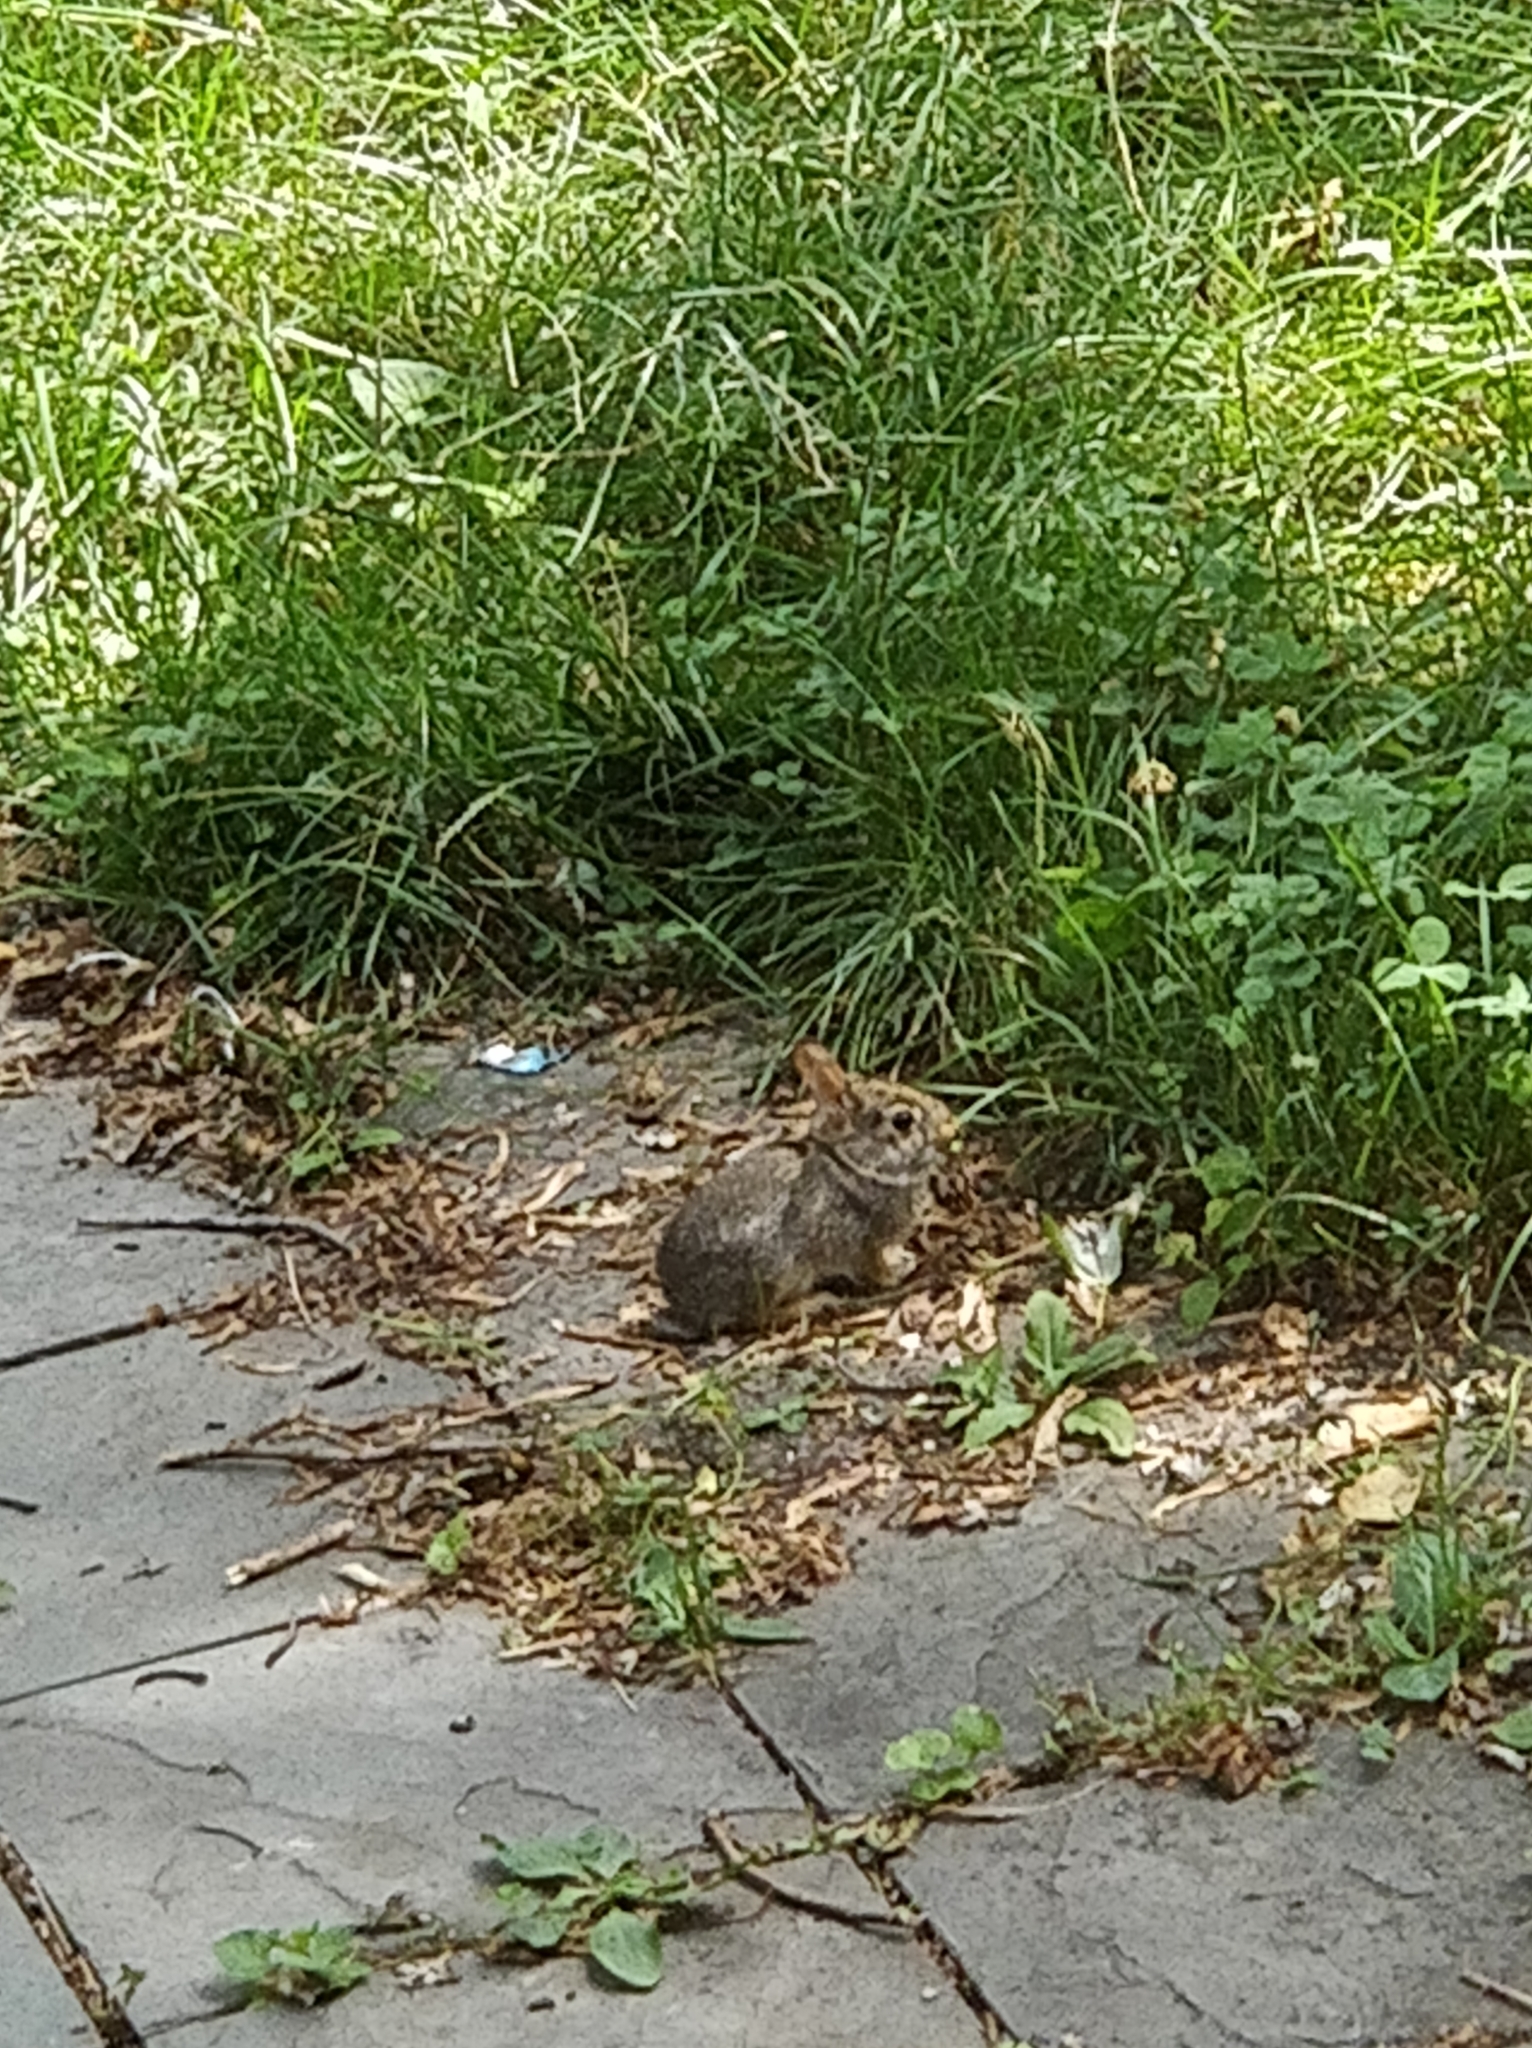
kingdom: Animalia
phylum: Chordata
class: Mammalia
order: Lagomorpha
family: Leporidae
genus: Sylvilagus
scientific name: Sylvilagus floridanus
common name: Eastern cottontail
